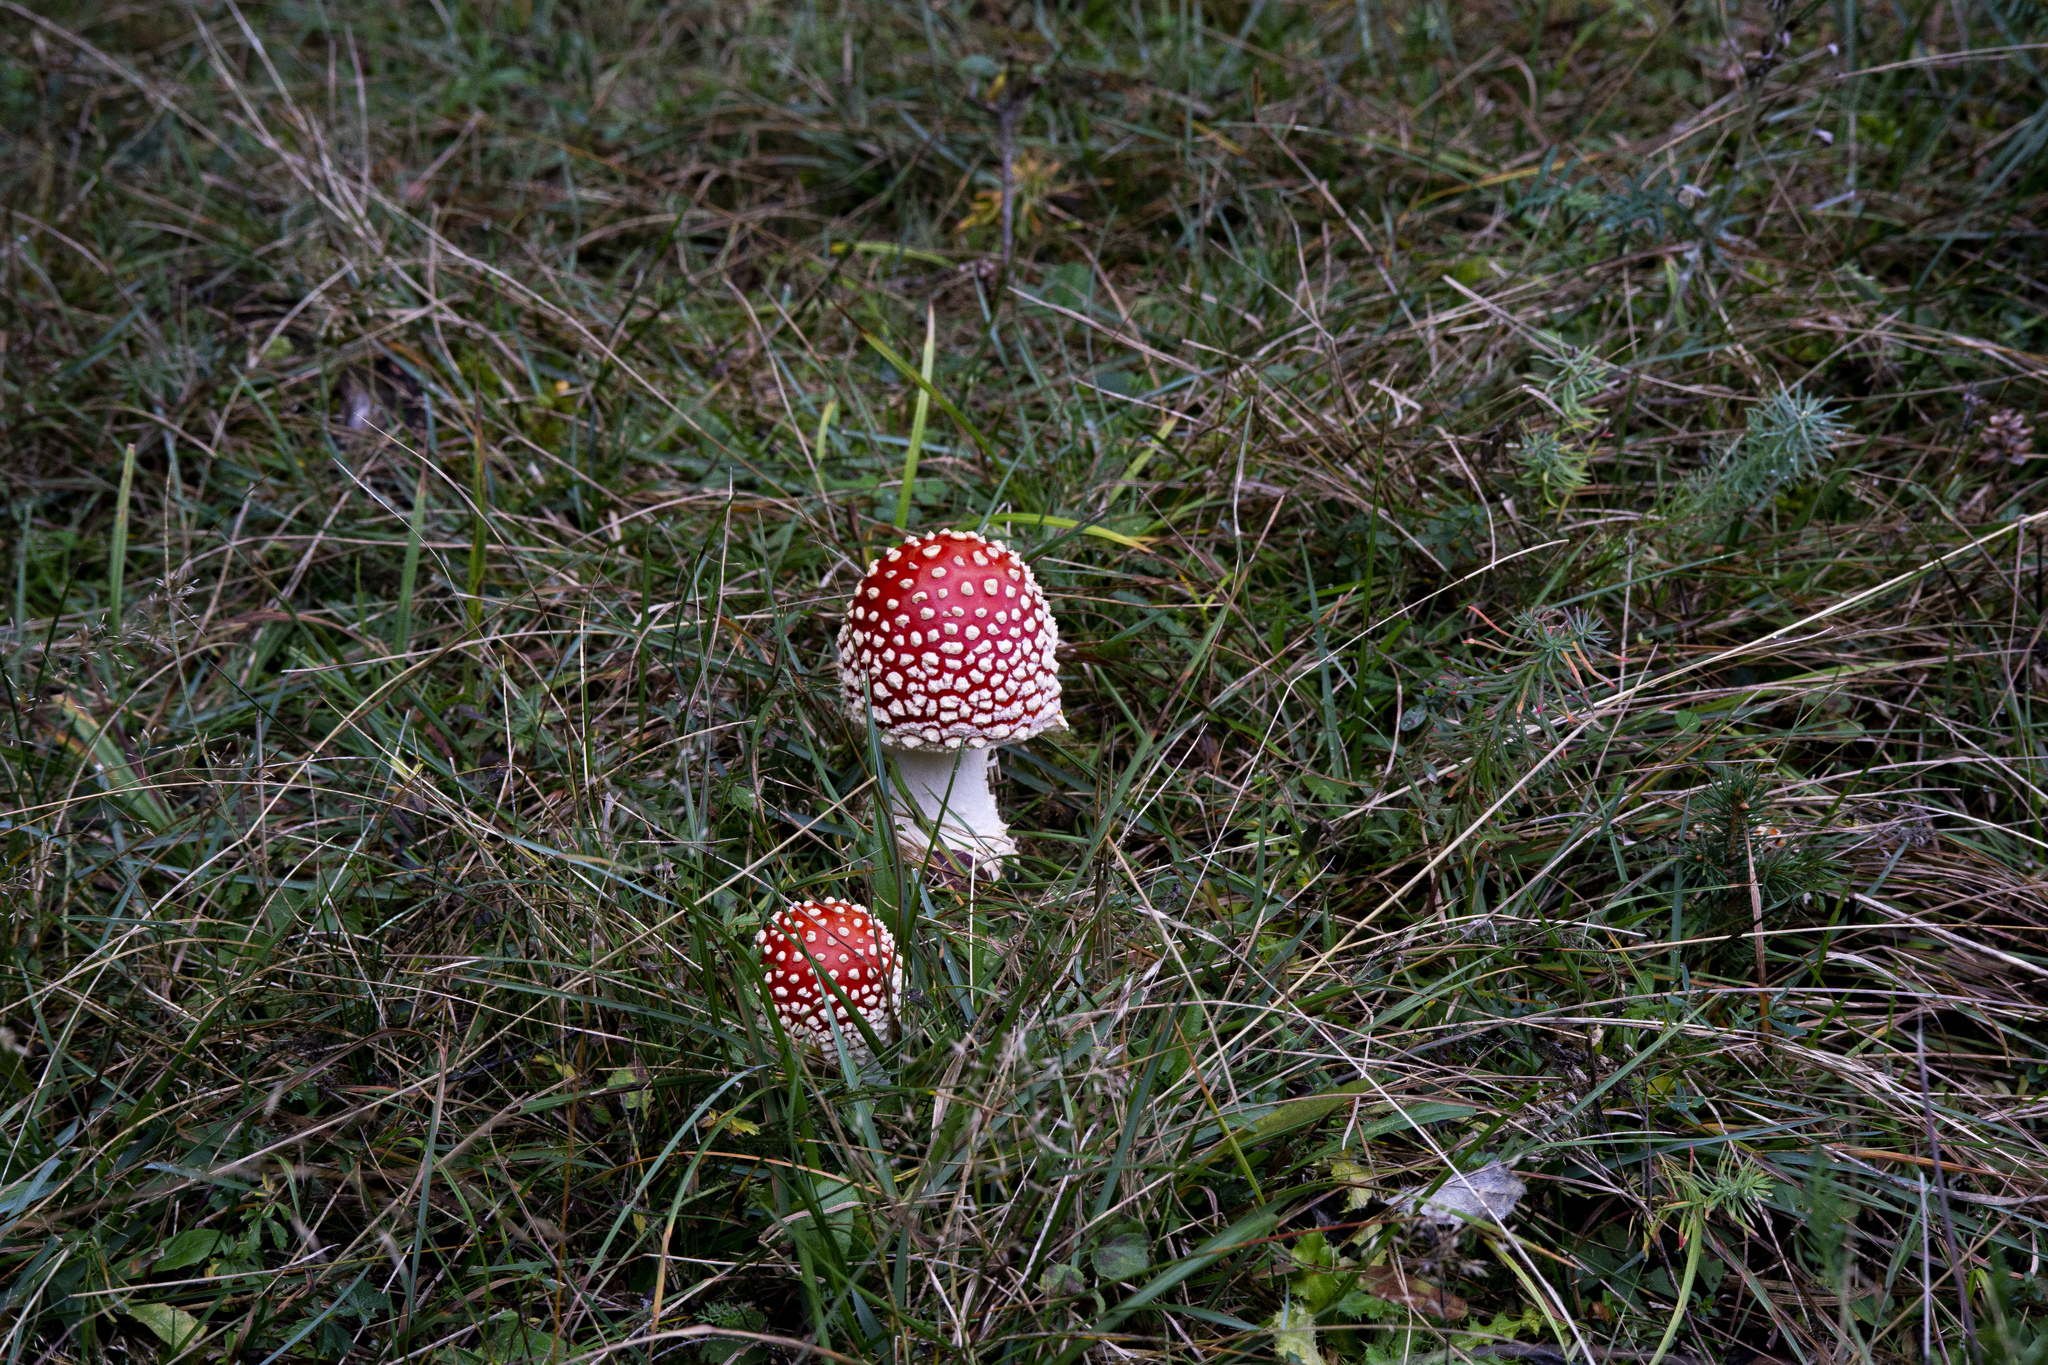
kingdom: Fungi
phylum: Basidiomycota
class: Agaricomycetes
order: Agaricales
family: Amanitaceae
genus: Amanita
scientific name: Amanita muscaria
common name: Fly agaric
